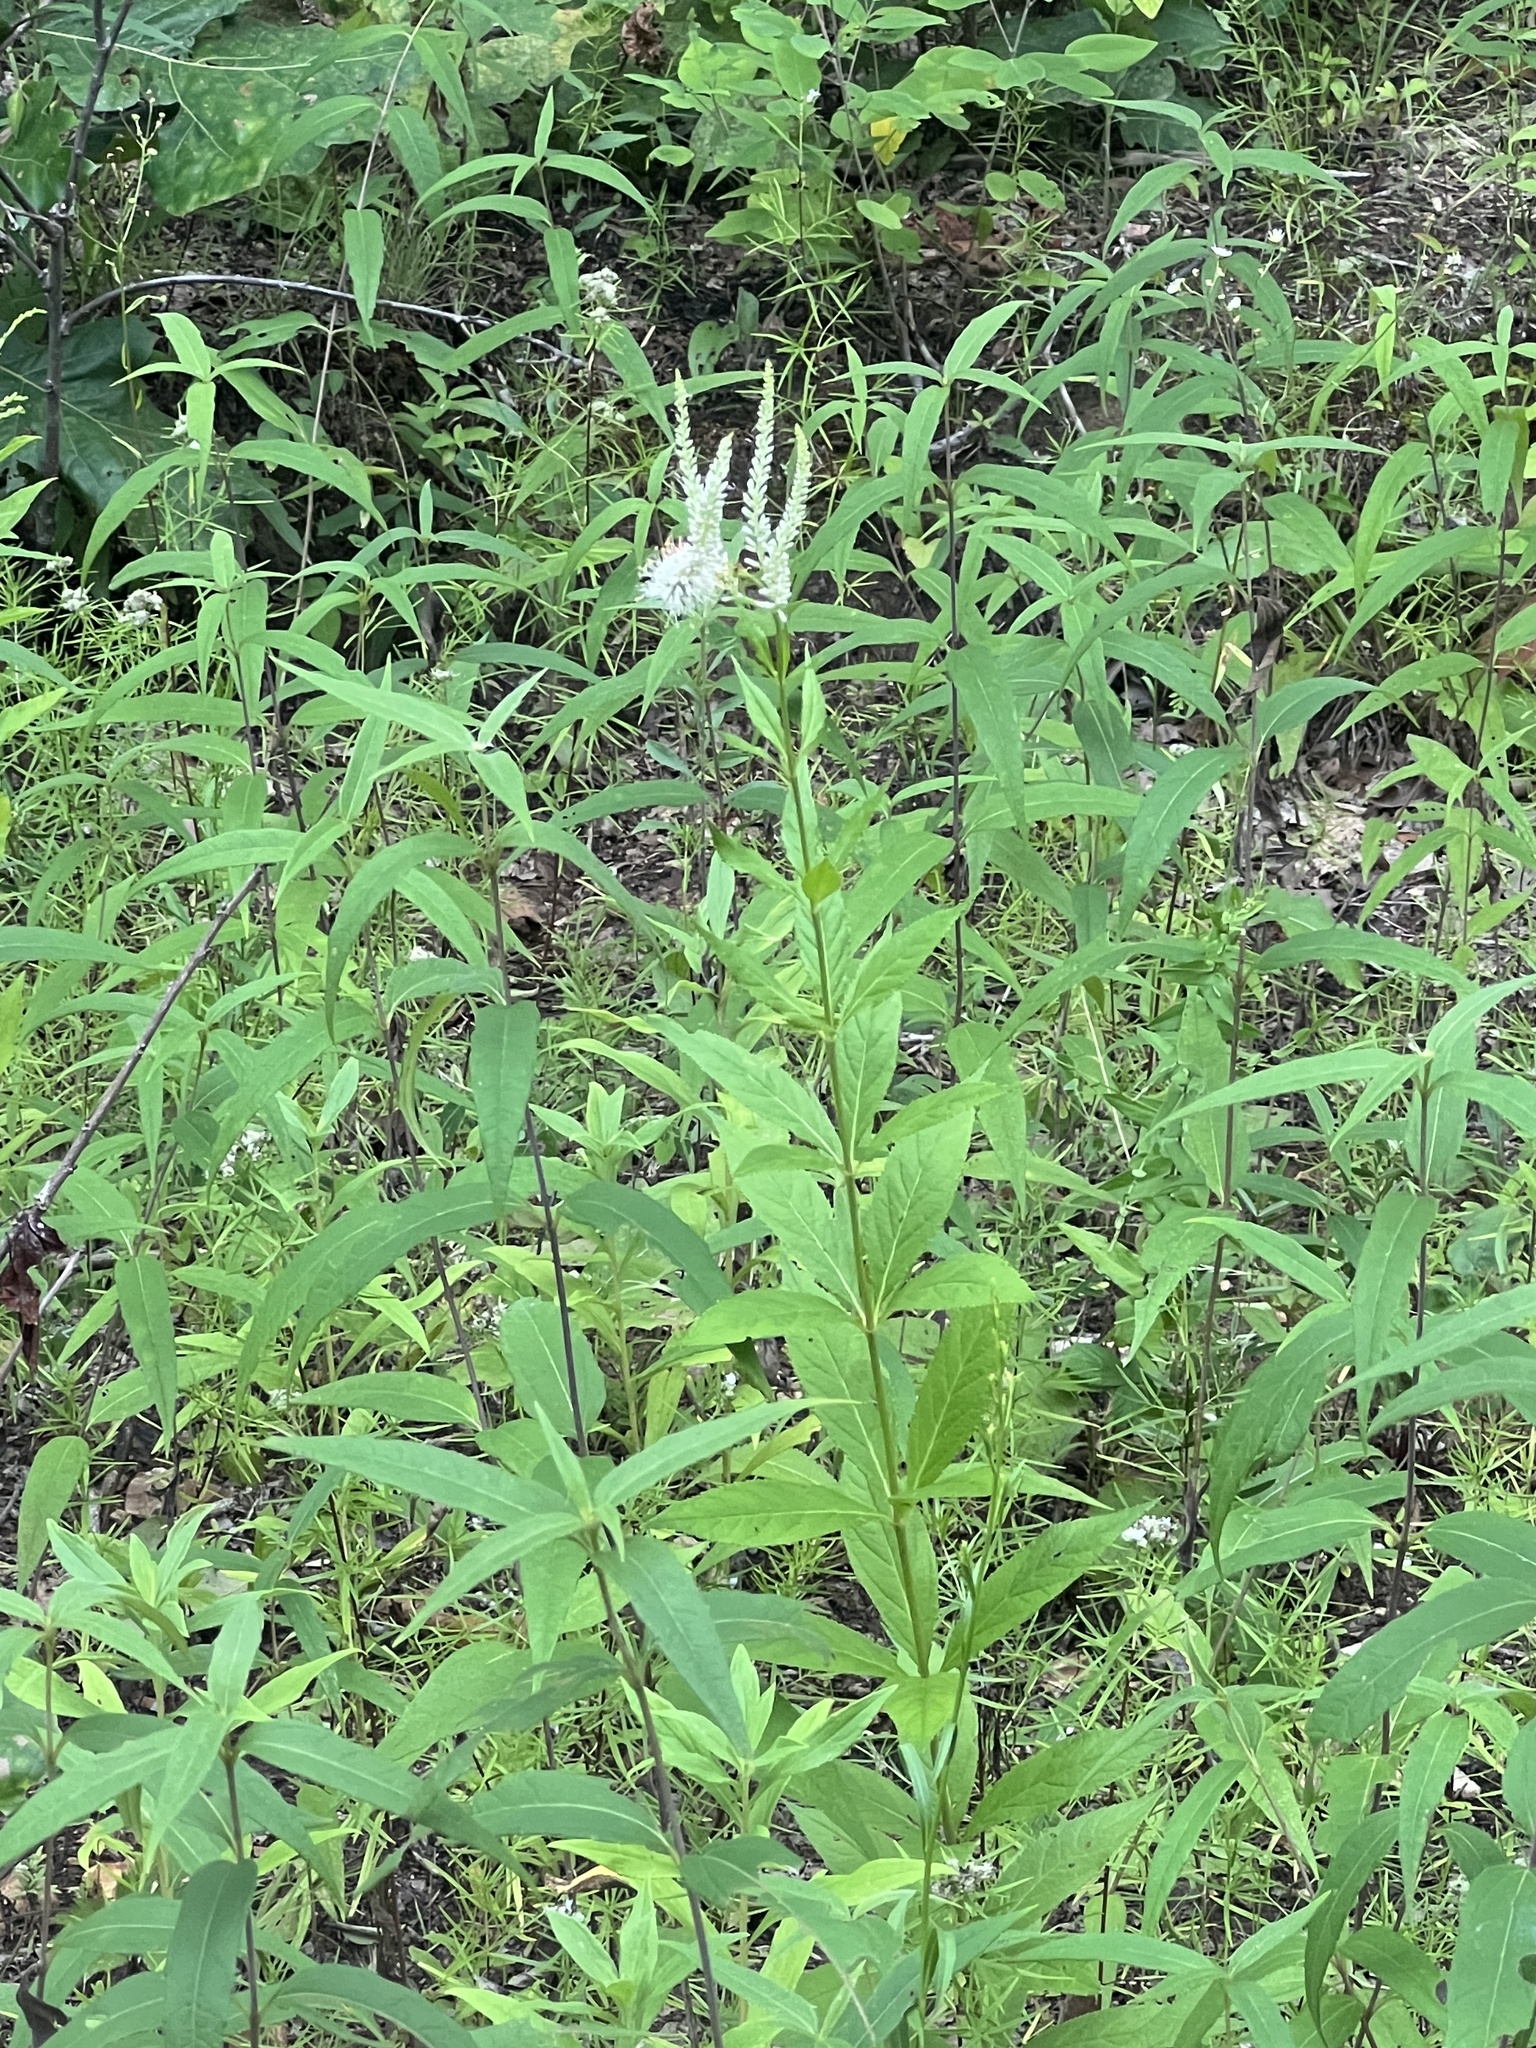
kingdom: Plantae
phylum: Tracheophyta
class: Magnoliopsida
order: Lamiales
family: Plantaginaceae
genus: Veronicastrum
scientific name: Veronicastrum virginicum
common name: Blackroot
